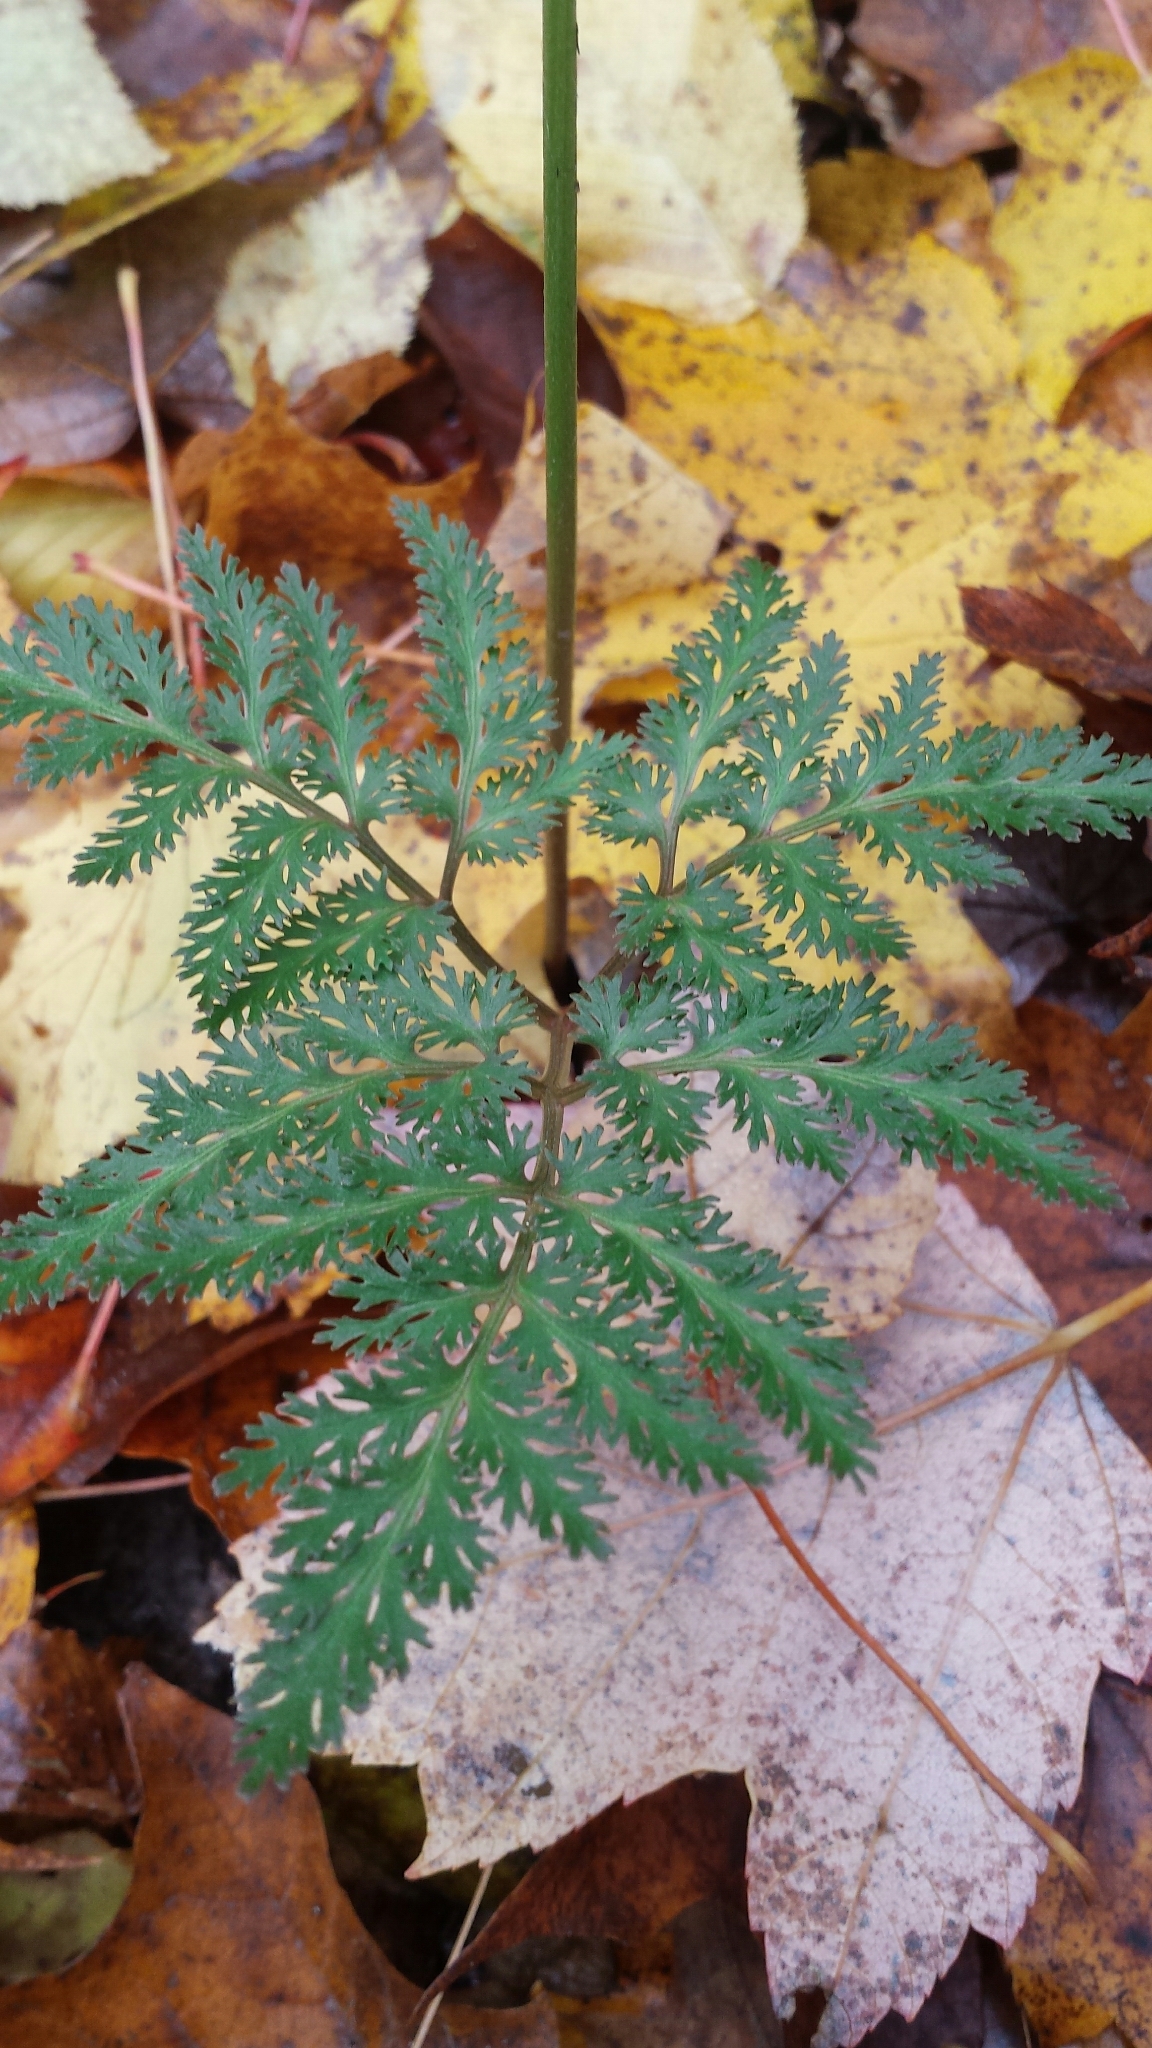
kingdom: Plantae
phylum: Tracheophyta
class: Polypodiopsida
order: Ophioglossales
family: Ophioglossaceae
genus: Sceptridium
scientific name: Sceptridium dissectum
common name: Cut-leaved grapefern
